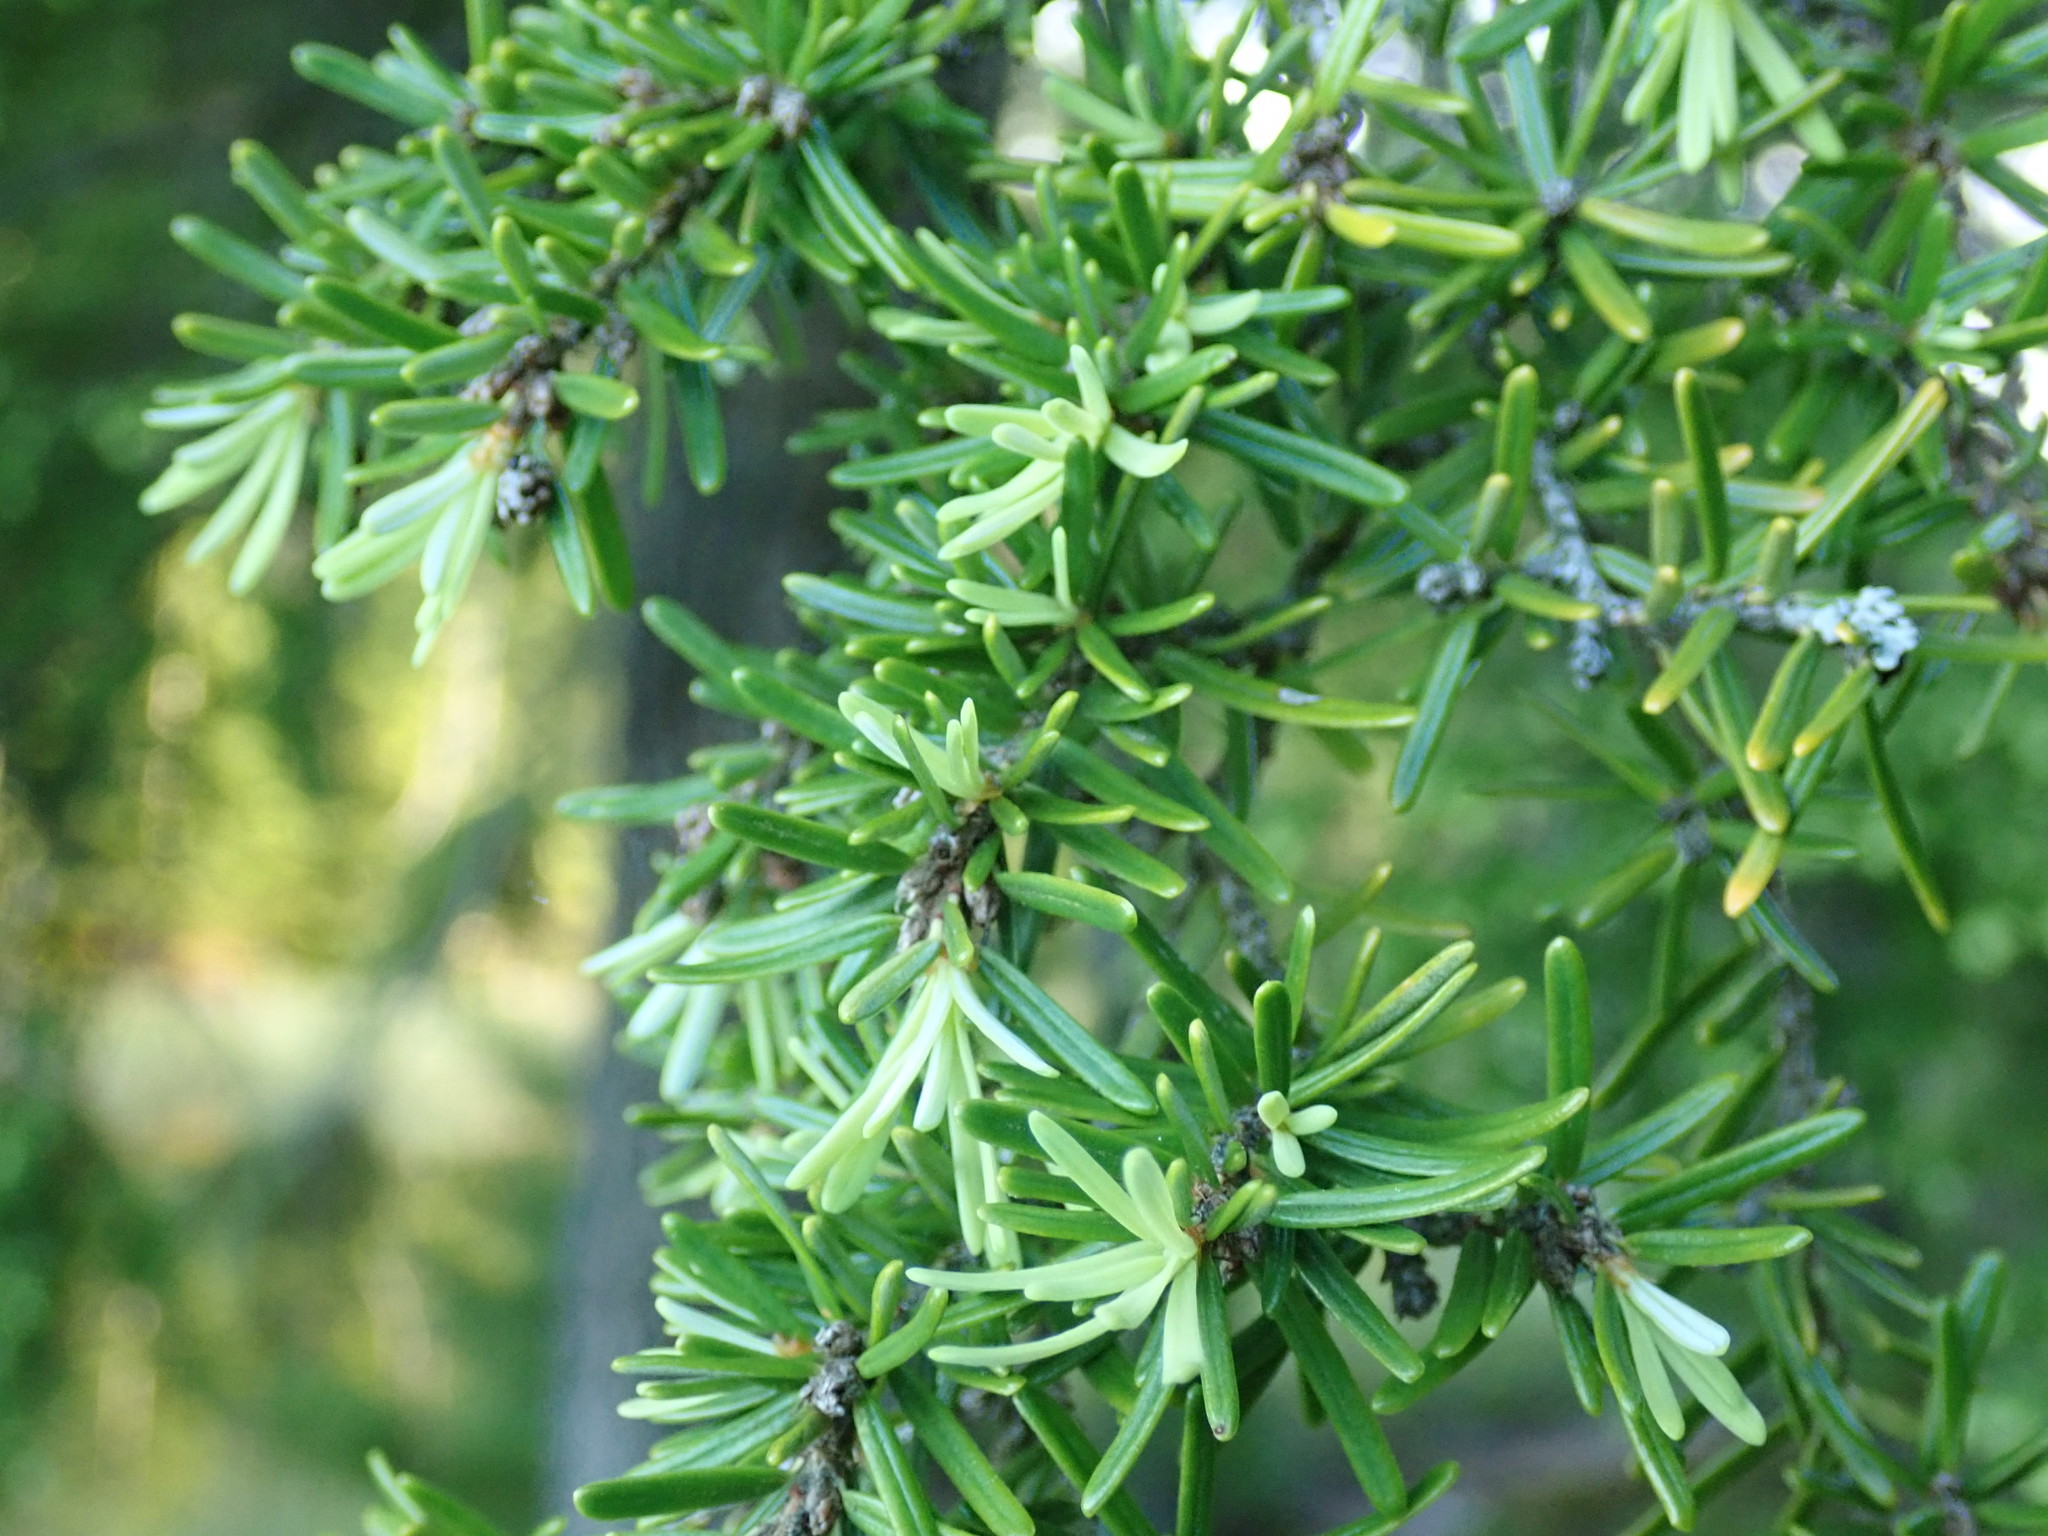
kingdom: Plantae
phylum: Tracheophyta
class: Pinopsida
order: Pinales
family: Pinaceae
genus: Tsuga
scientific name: Tsuga heterophylla
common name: Western hemlock
